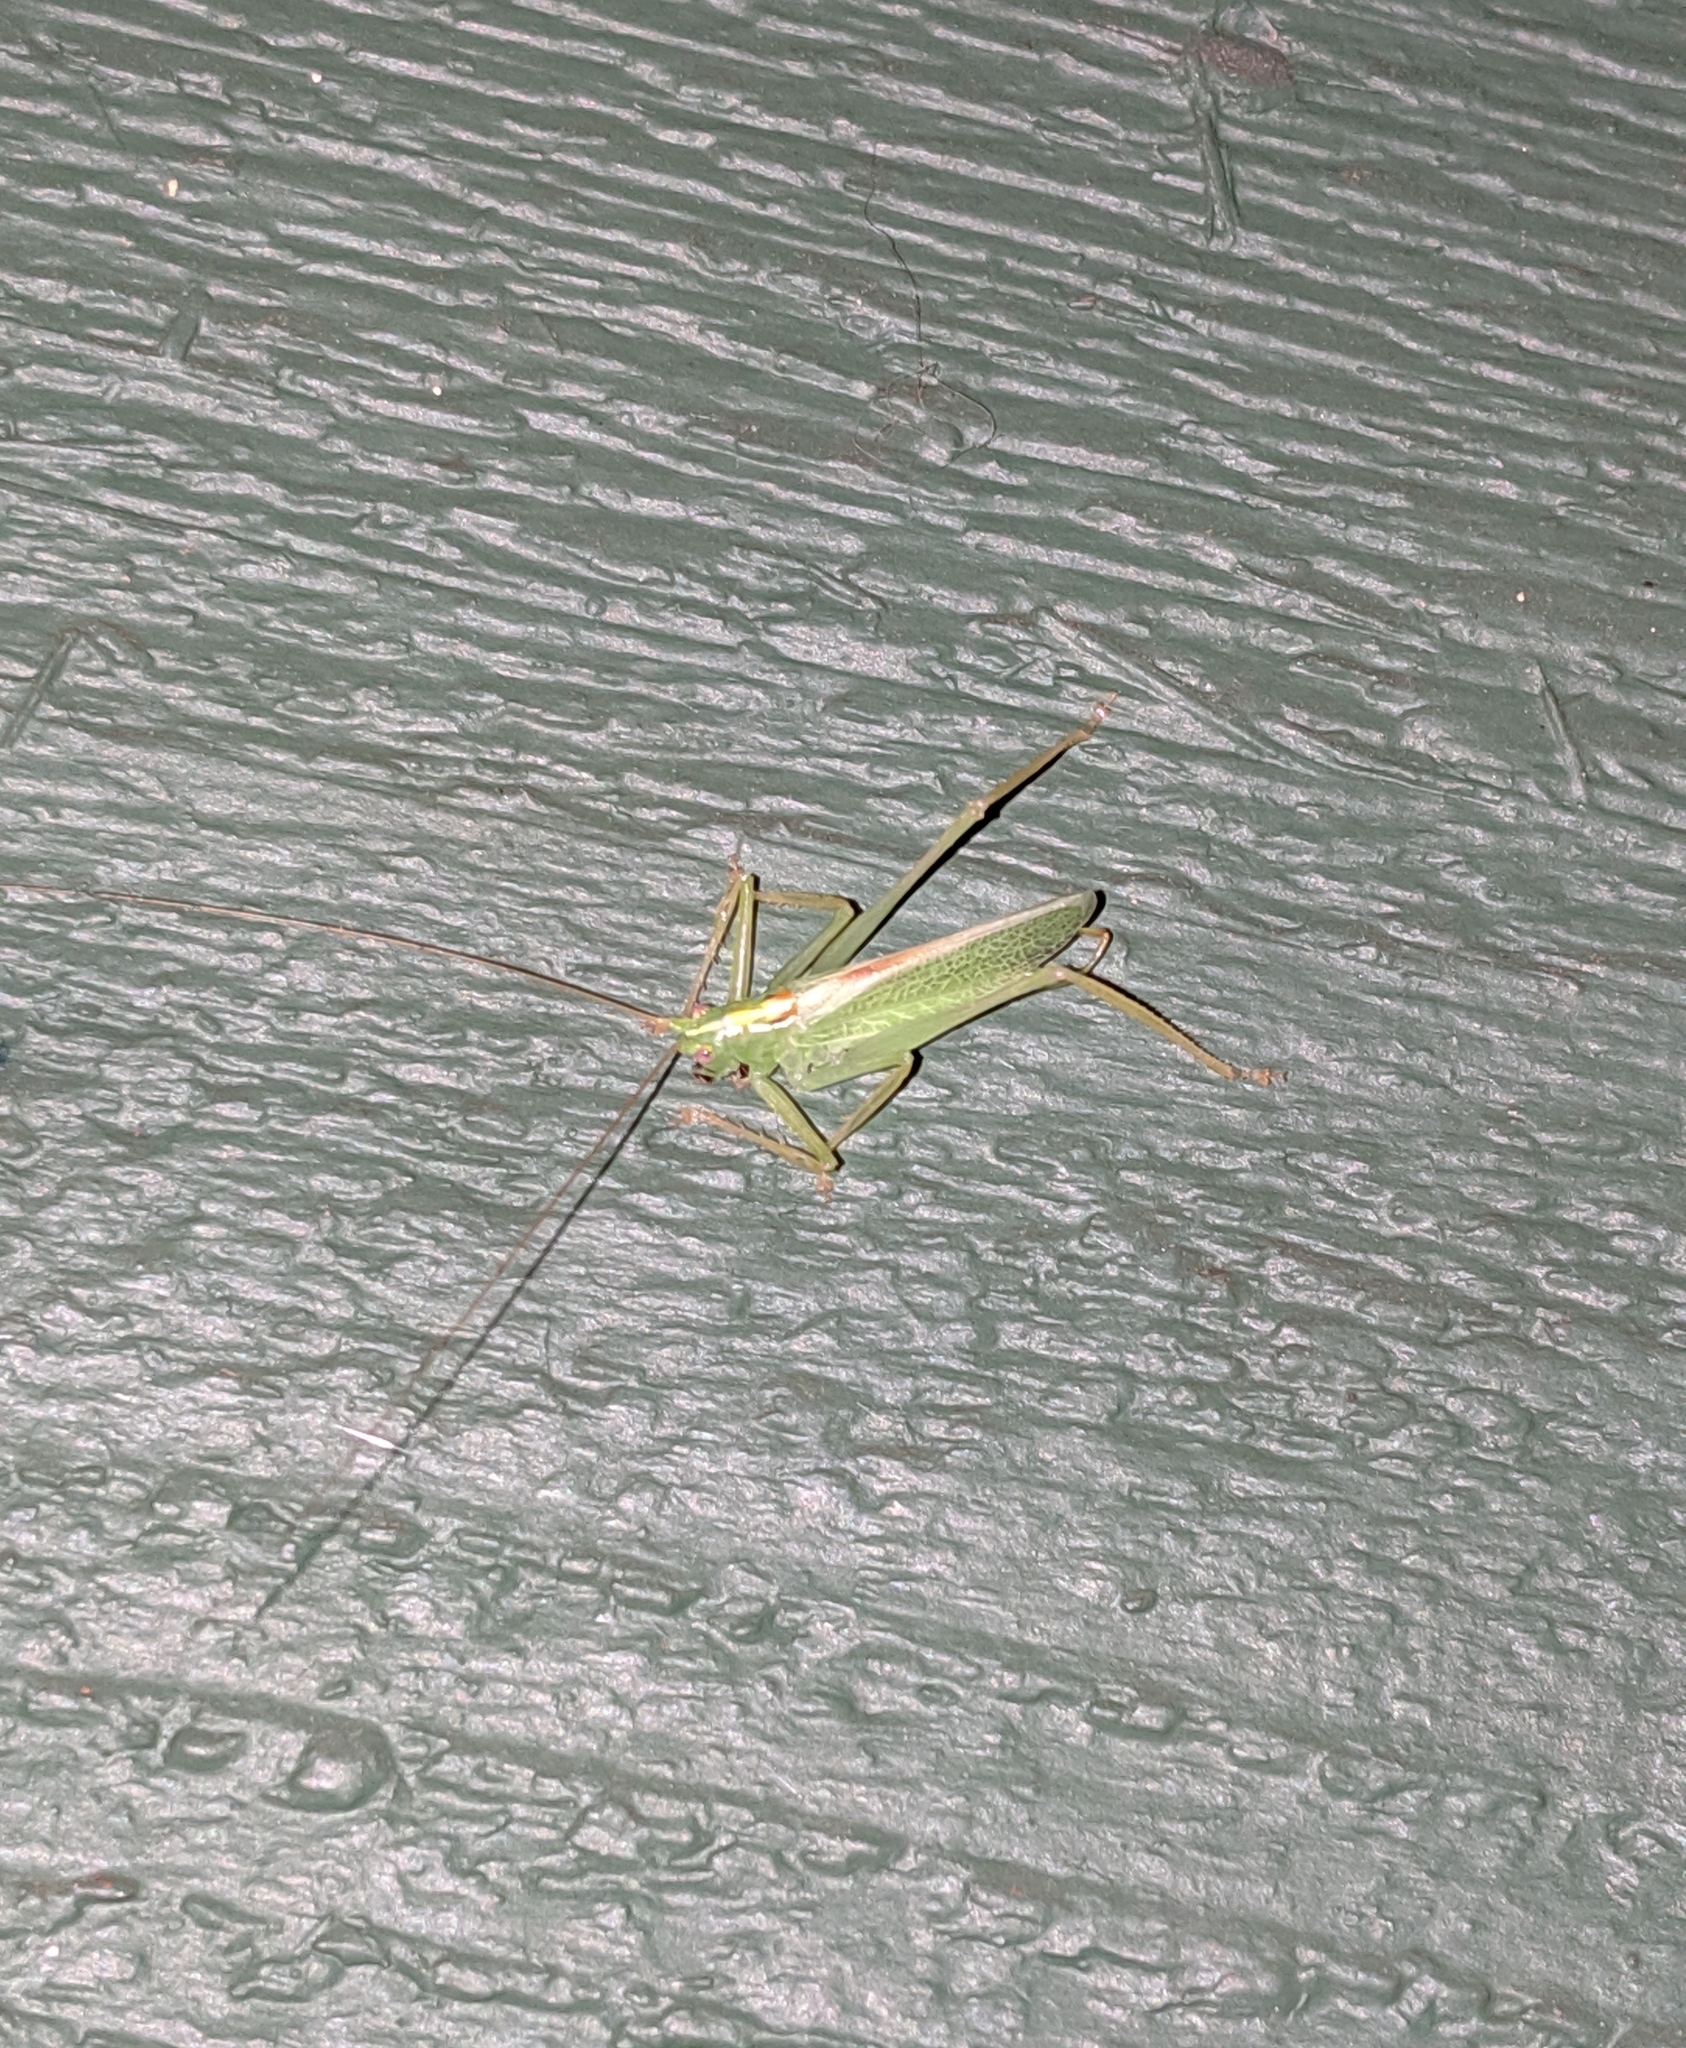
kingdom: Animalia
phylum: Arthropoda
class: Insecta
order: Orthoptera
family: Tettigoniidae
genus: Meconema
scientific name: Meconema thalassinum
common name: Oak bush-cricket
